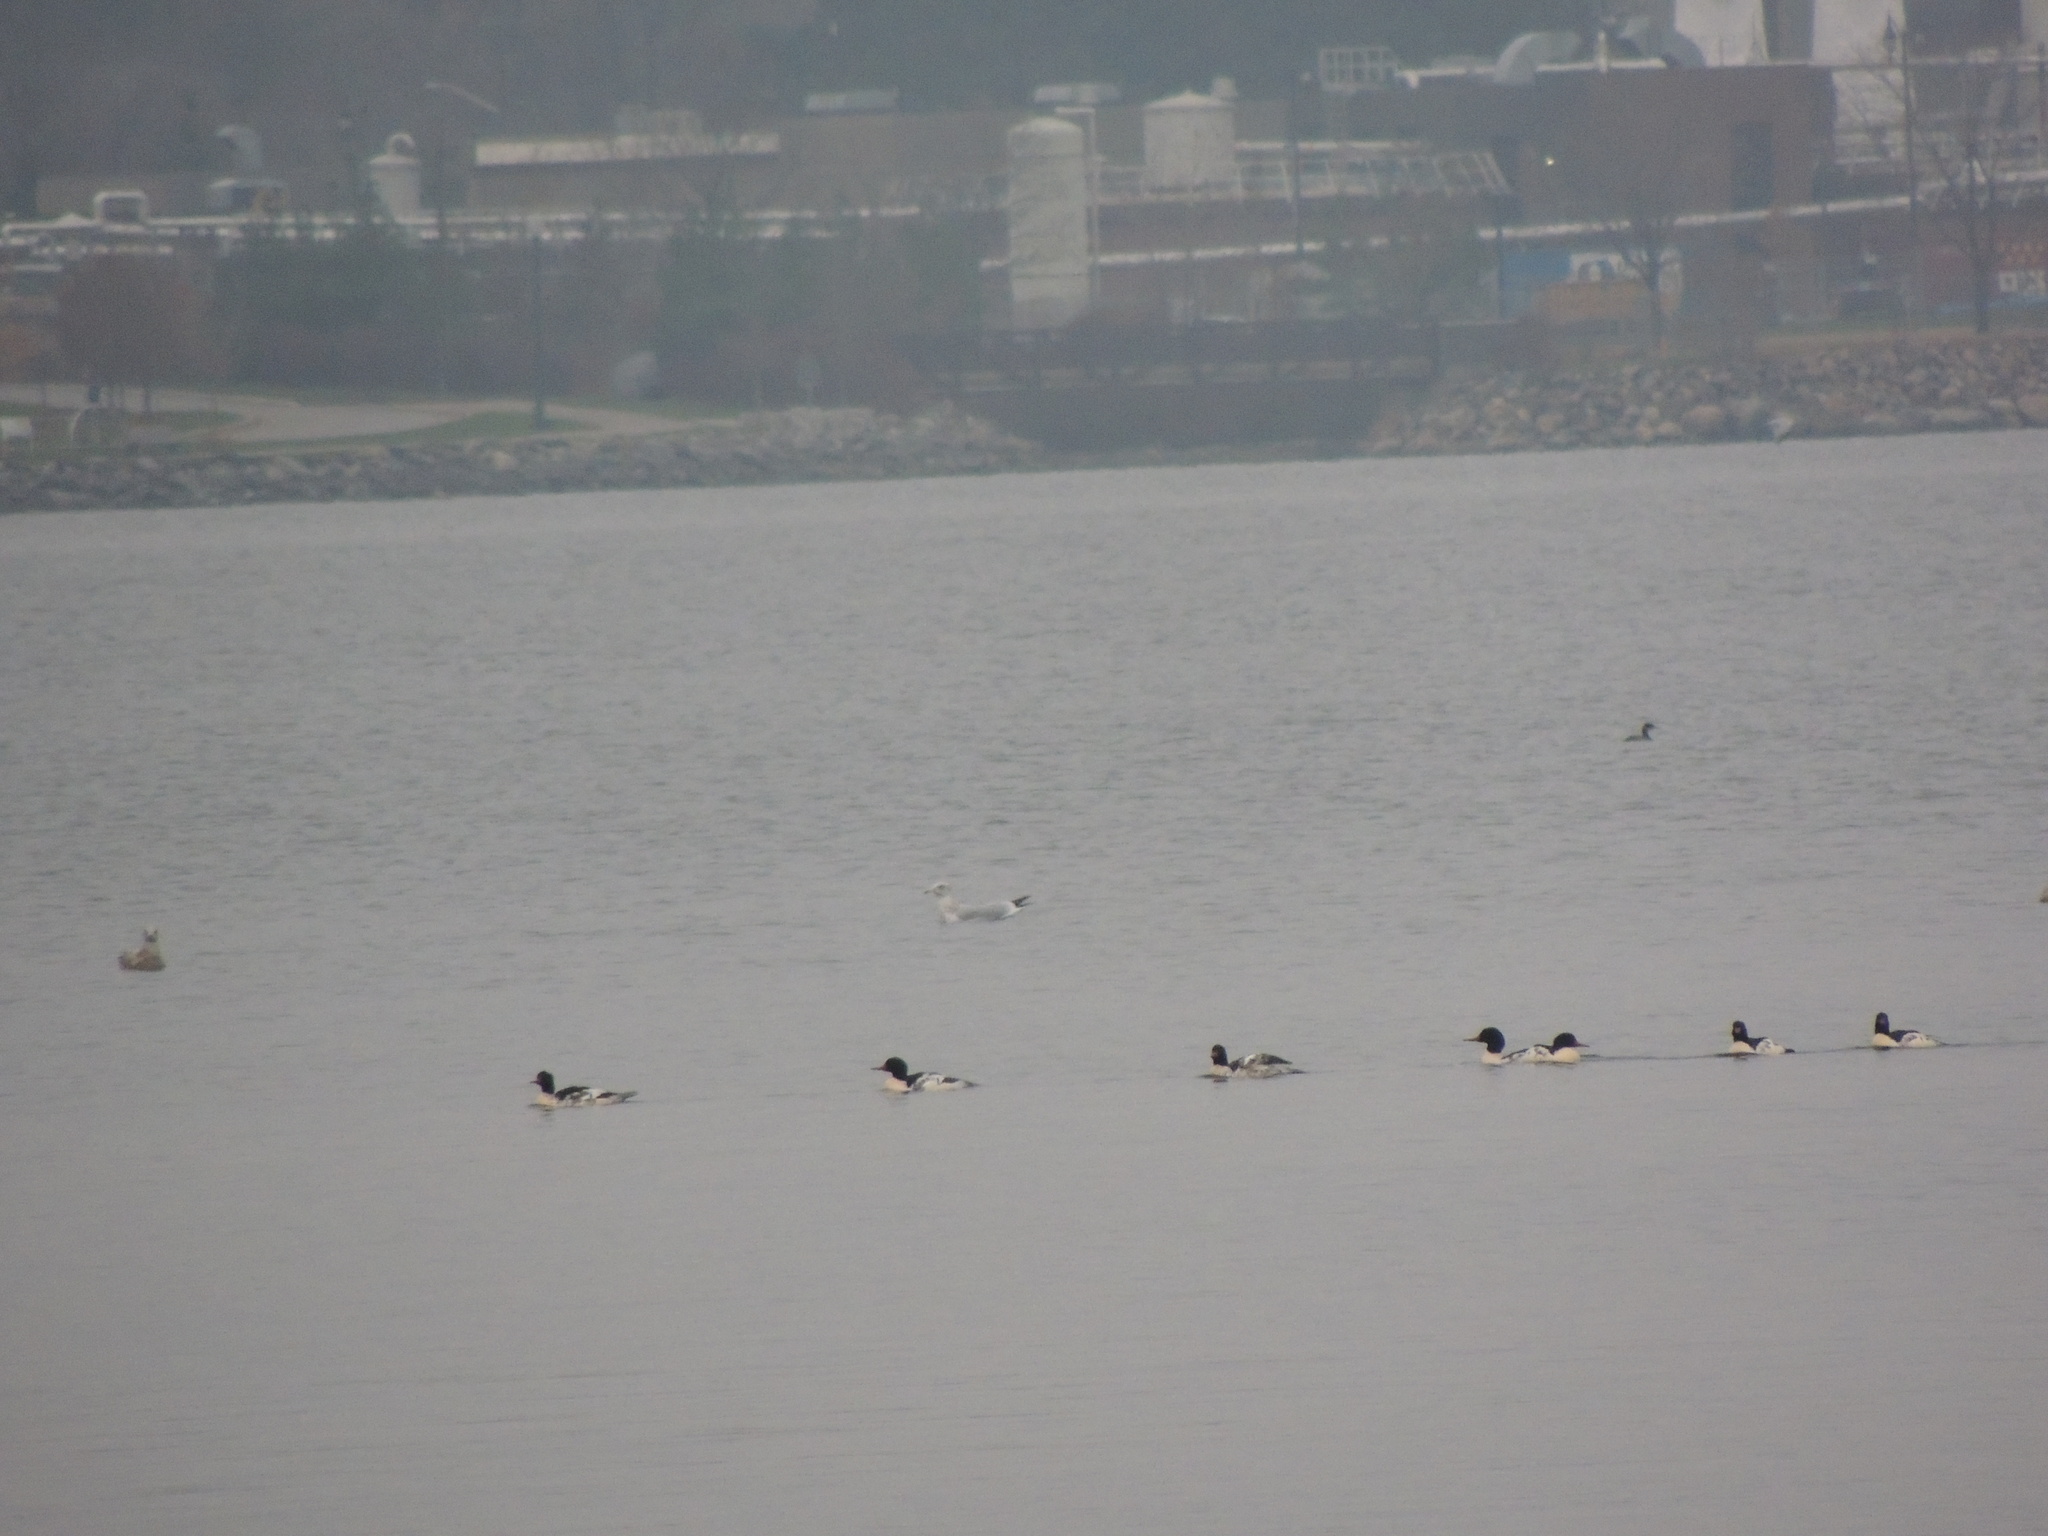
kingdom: Animalia
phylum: Chordata
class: Aves
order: Anseriformes
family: Anatidae
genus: Mergus
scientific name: Mergus merganser
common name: Common merganser
